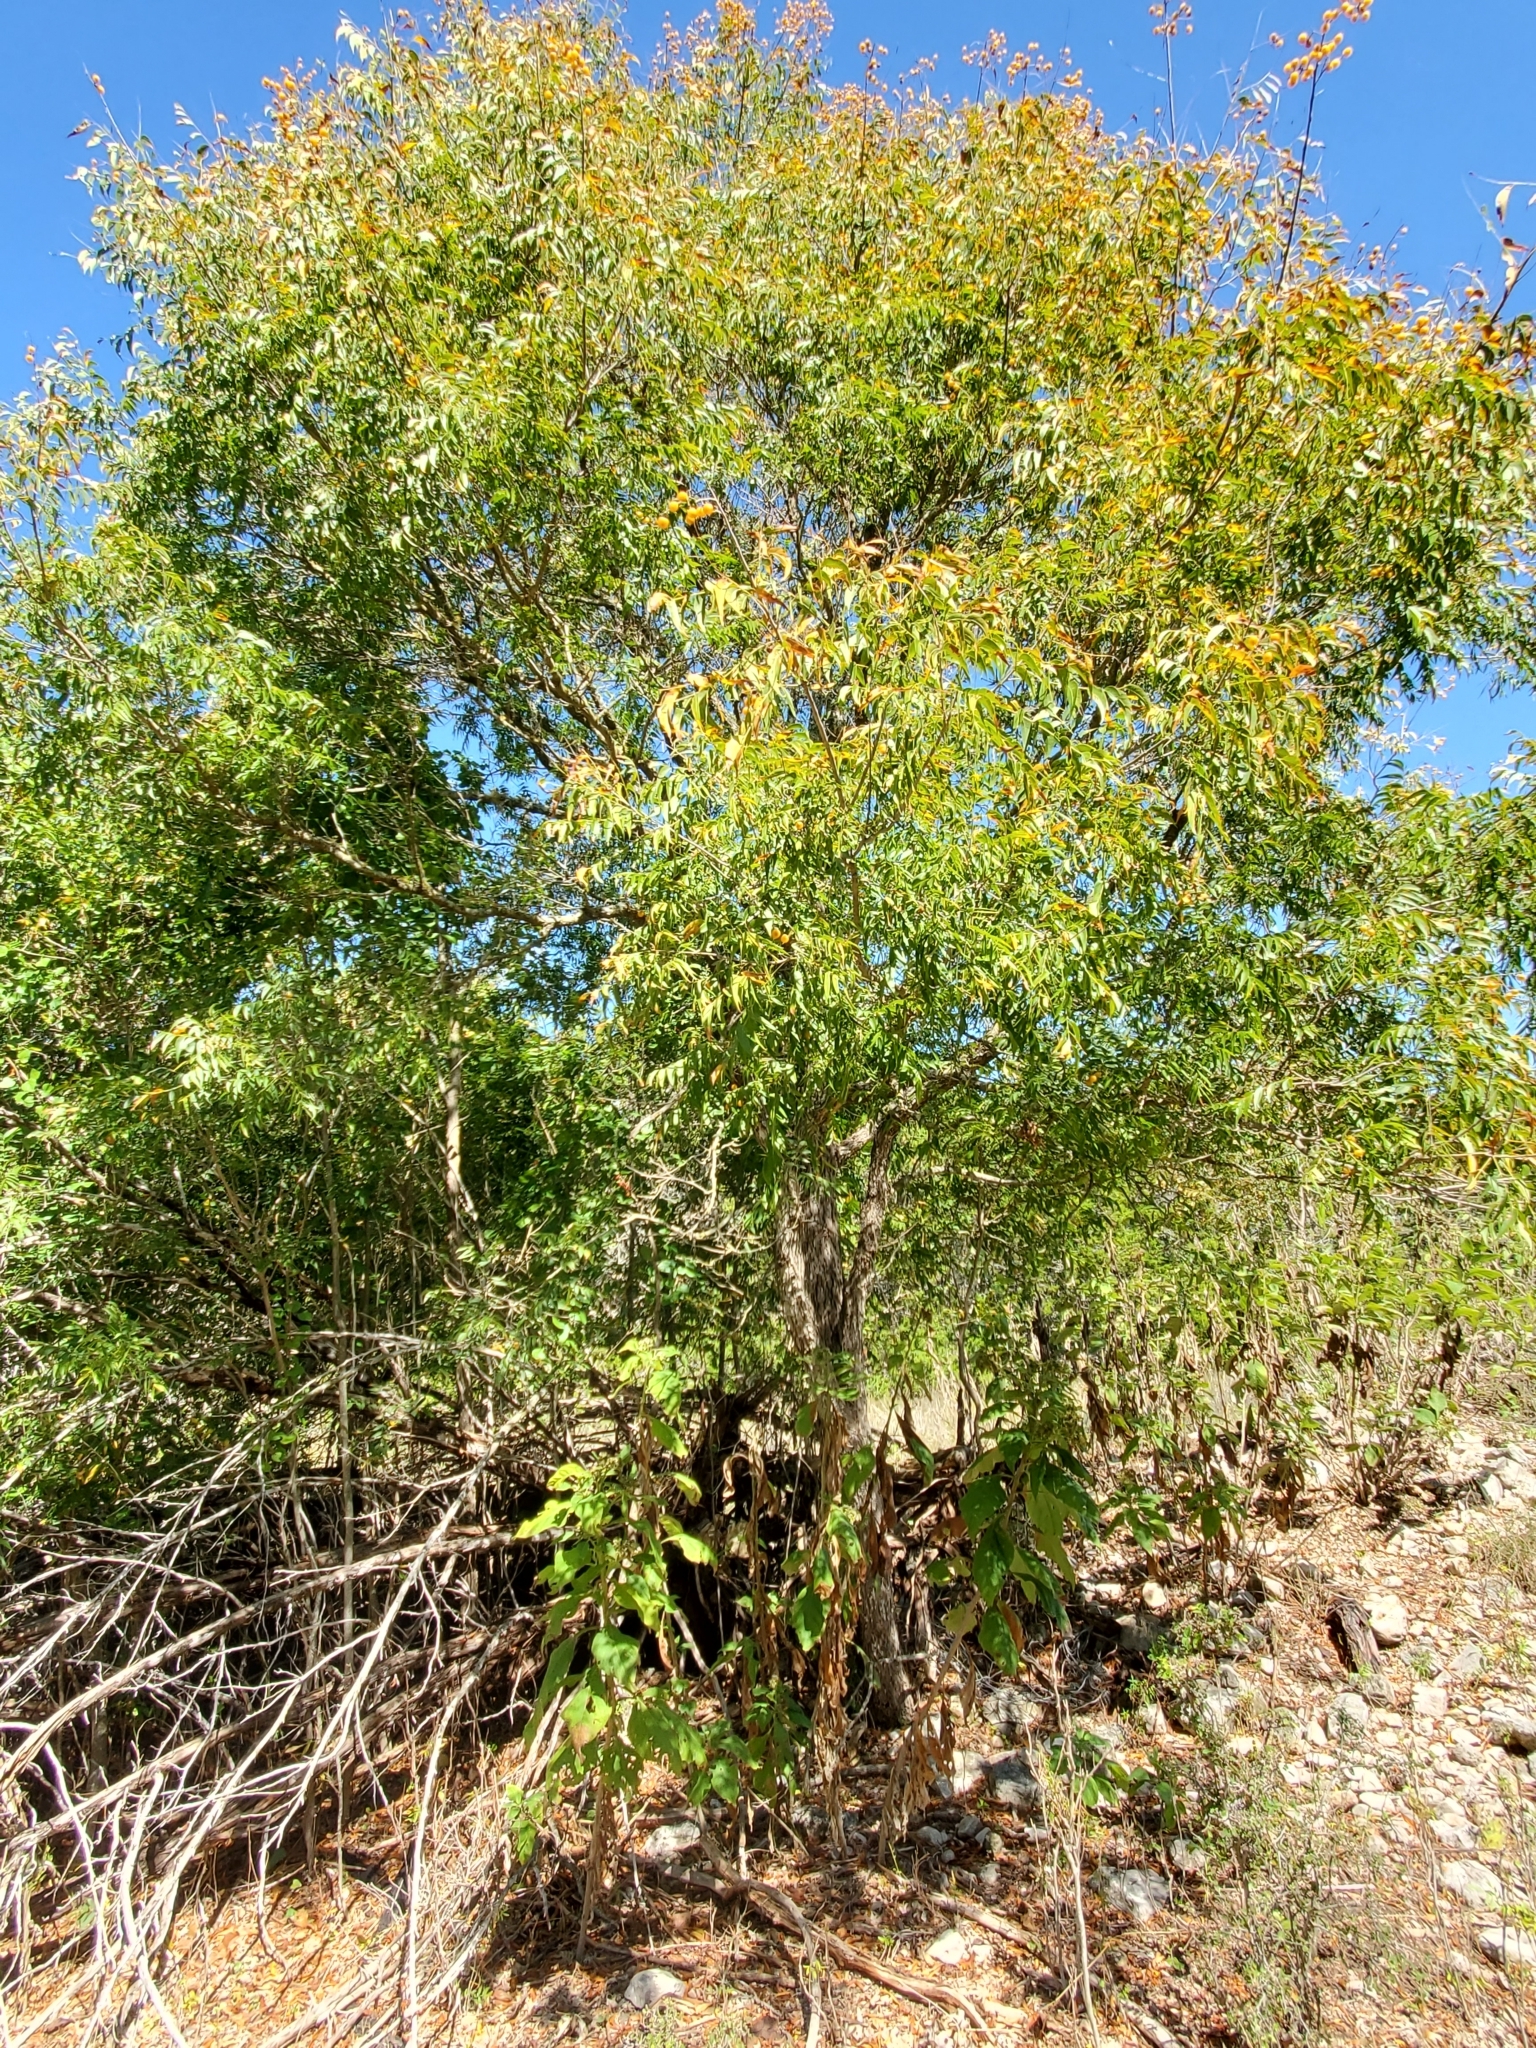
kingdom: Plantae
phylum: Tracheophyta
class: Magnoliopsida
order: Sapindales
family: Sapindaceae
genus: Sapindus
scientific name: Sapindus drummondii
